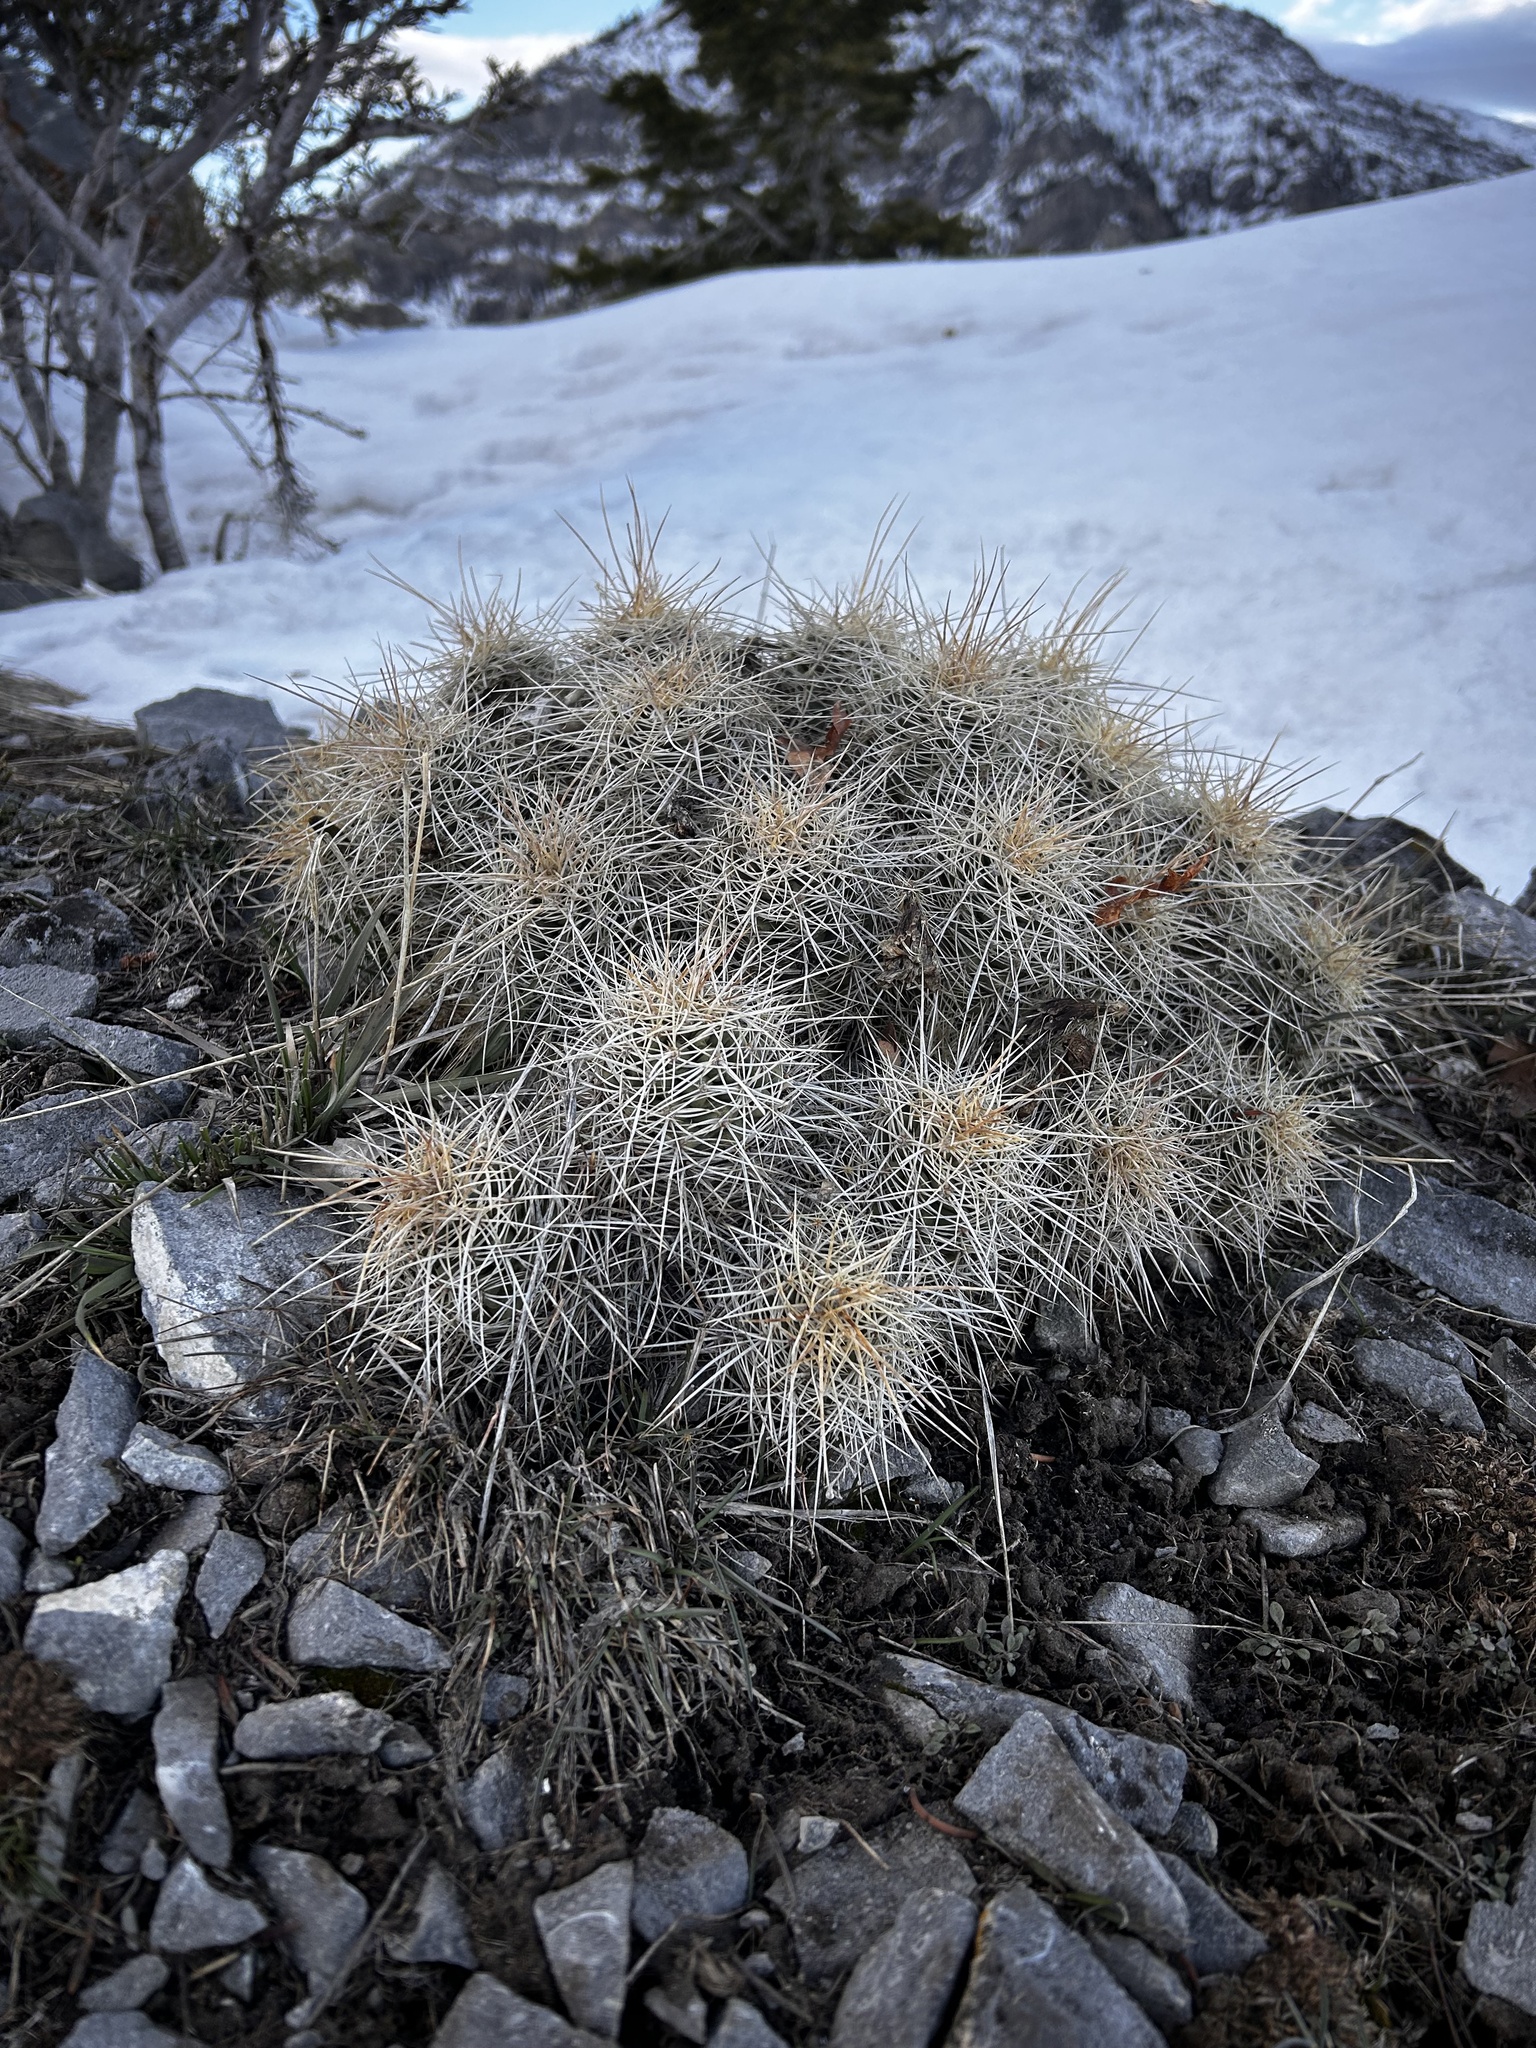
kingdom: Plantae
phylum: Tracheophyta
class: Magnoliopsida
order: Caryophyllales
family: Cactaceae
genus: Echinocereus
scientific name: Echinocereus triglochidiatus
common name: Claretcup hedgehog
